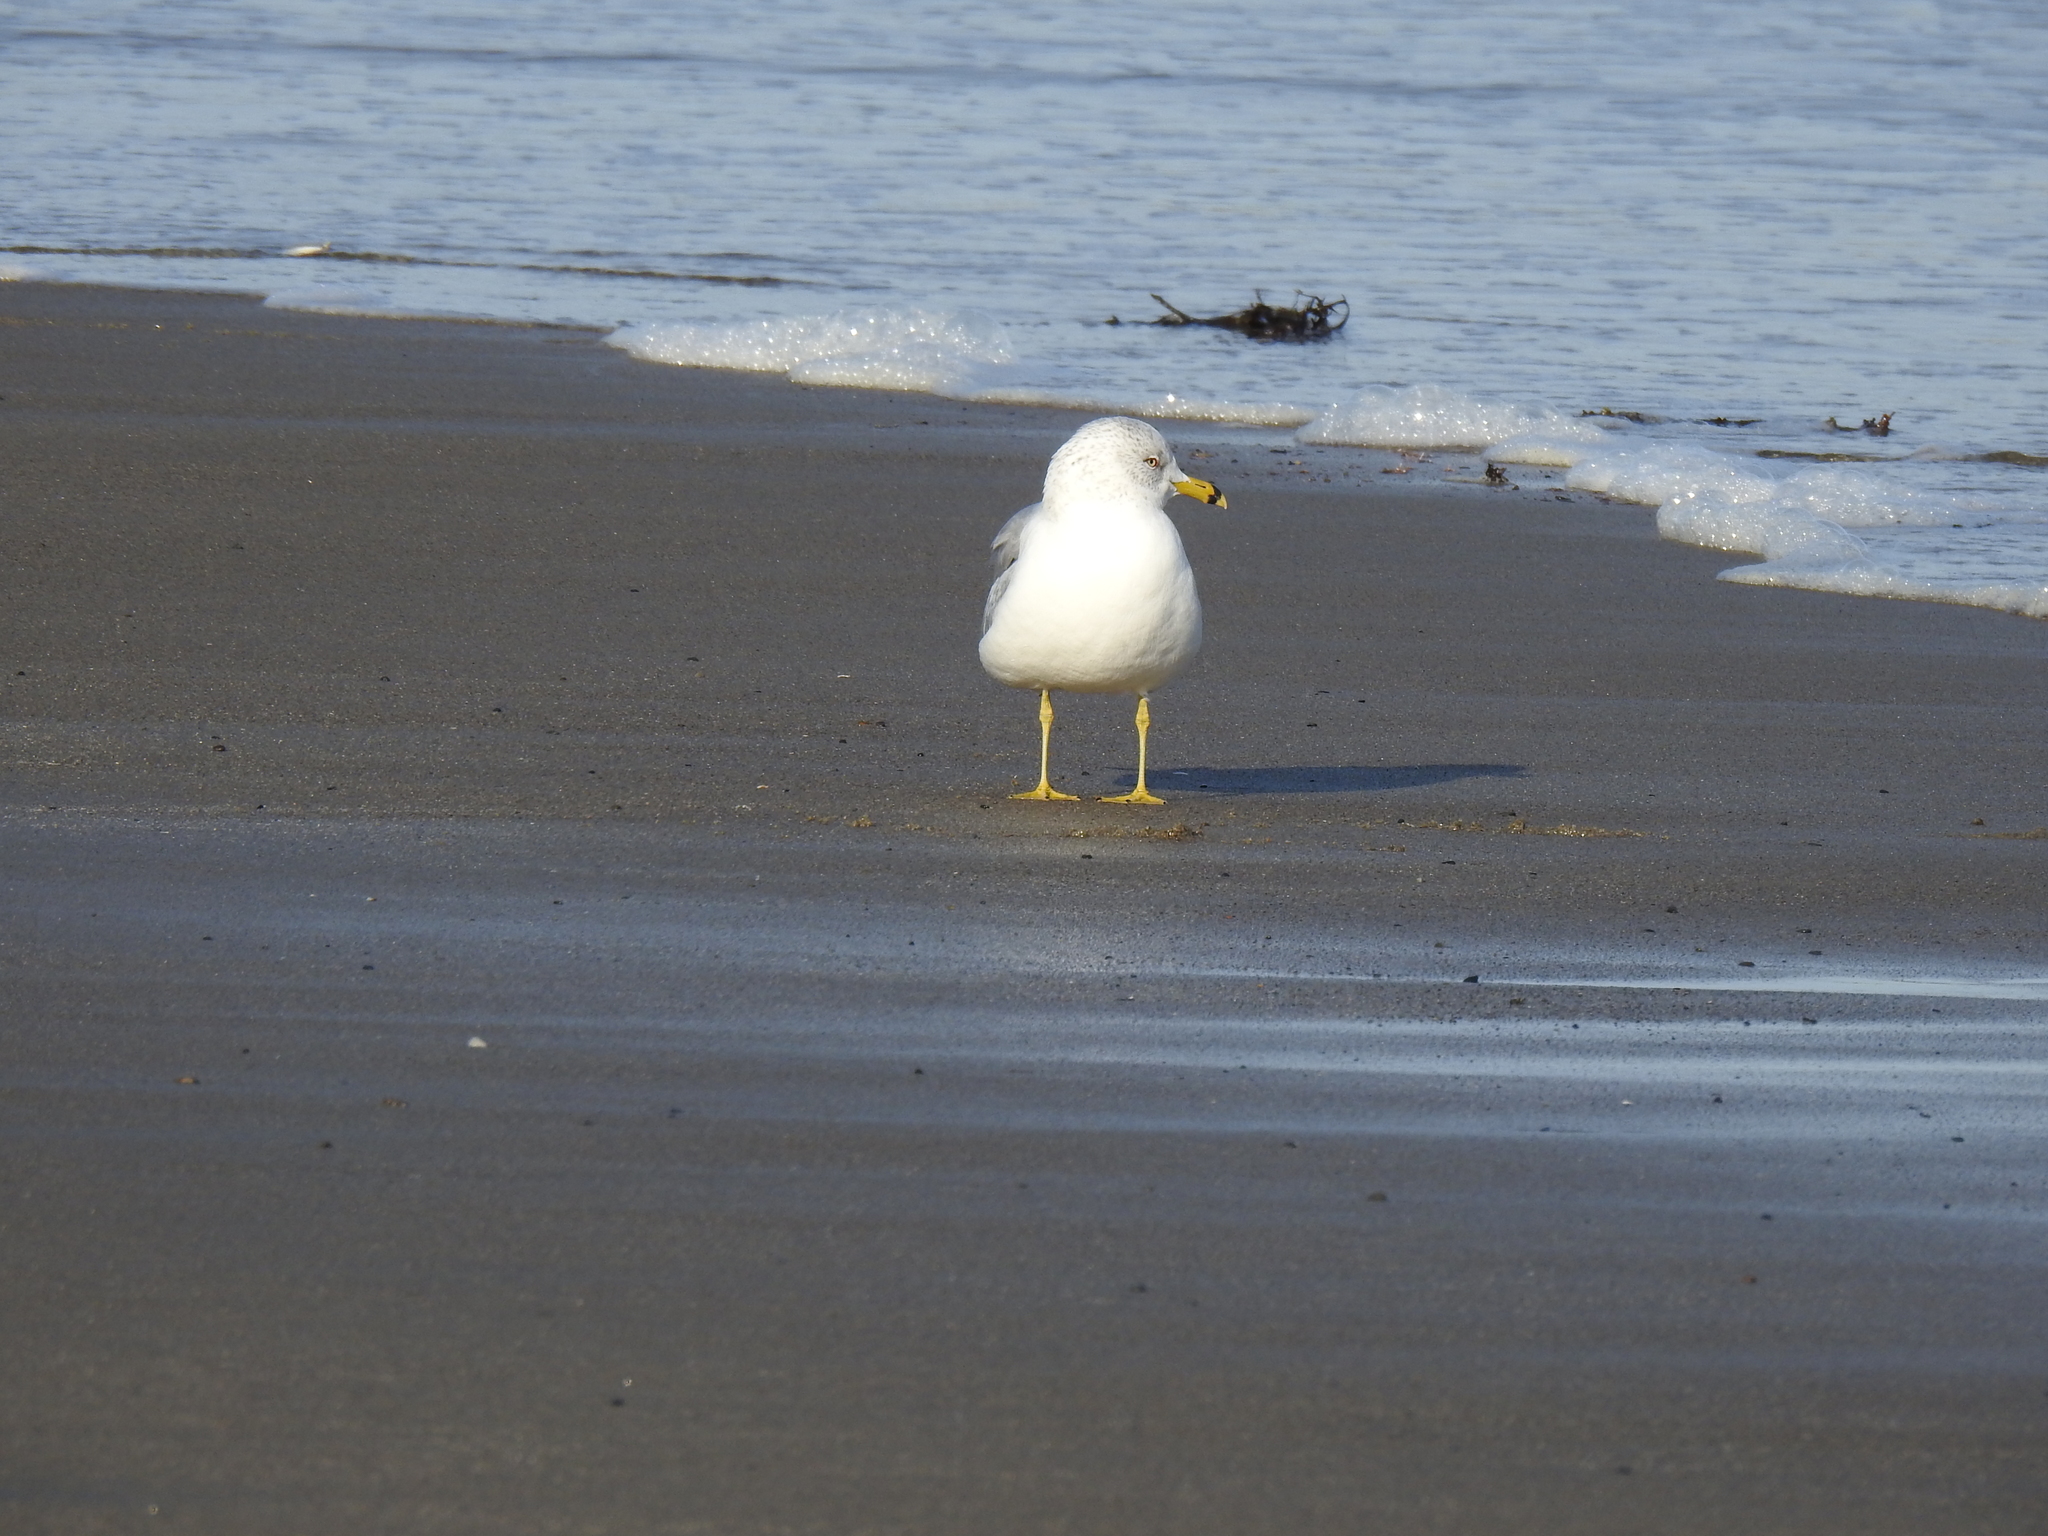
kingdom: Animalia
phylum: Chordata
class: Aves
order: Charadriiformes
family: Laridae
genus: Larus
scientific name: Larus delawarensis
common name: Ring-billed gull
